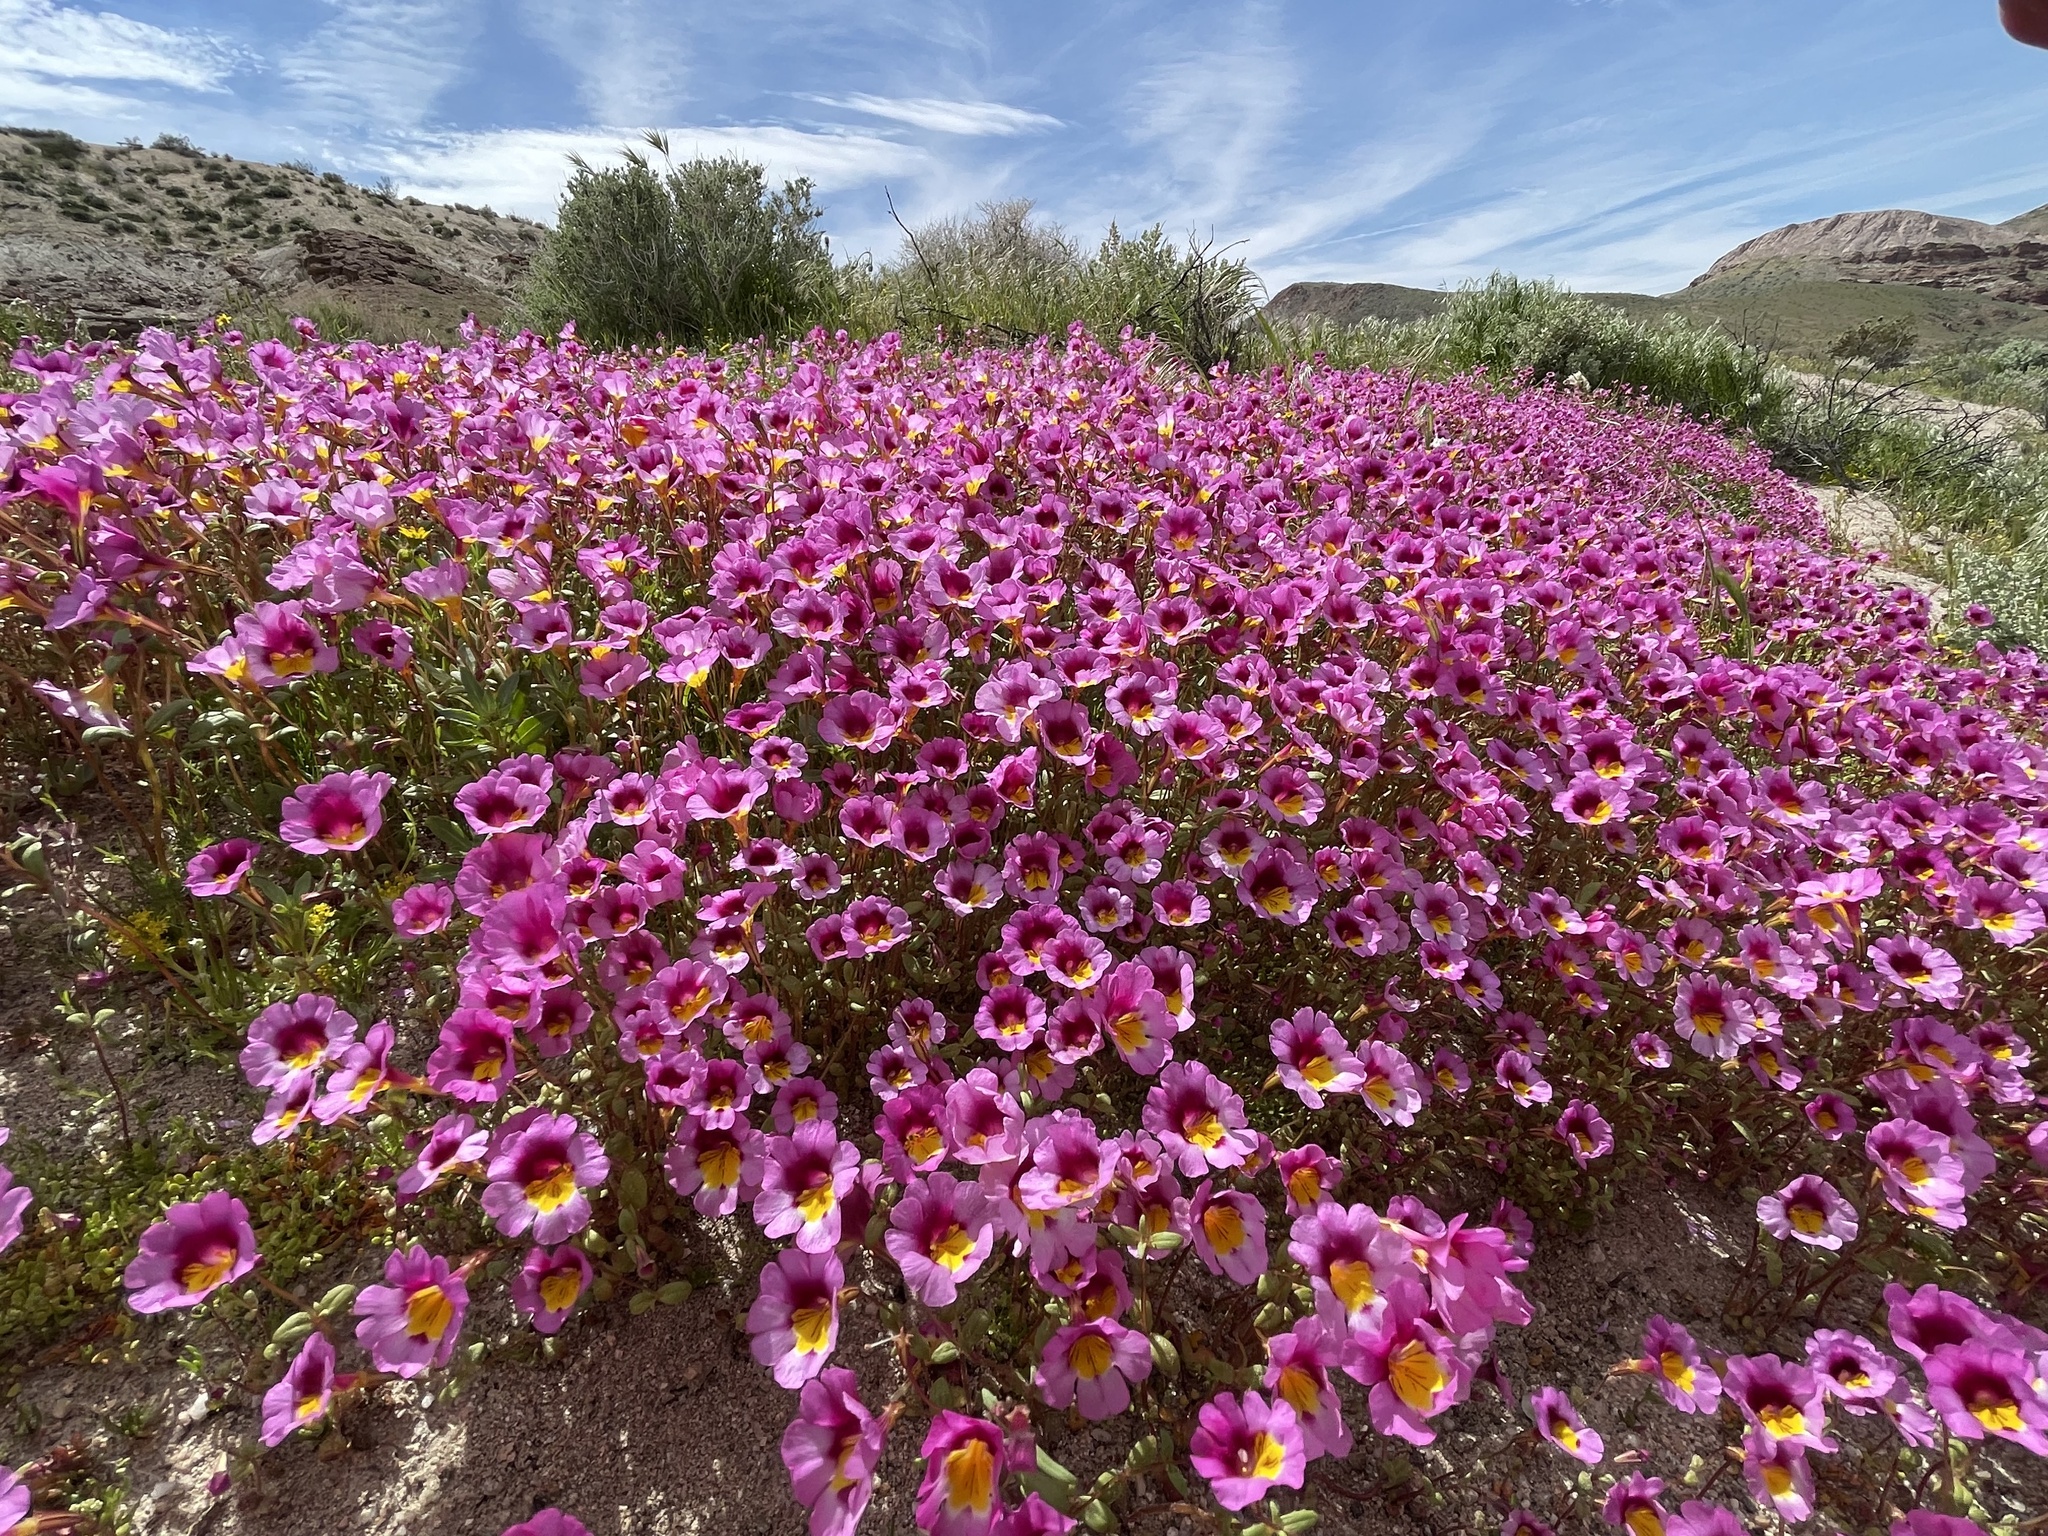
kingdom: Plantae
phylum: Tracheophyta
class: Magnoliopsida
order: Lamiales
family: Phrymaceae
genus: Erythranthe
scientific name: Erythranthe rhodopetra
